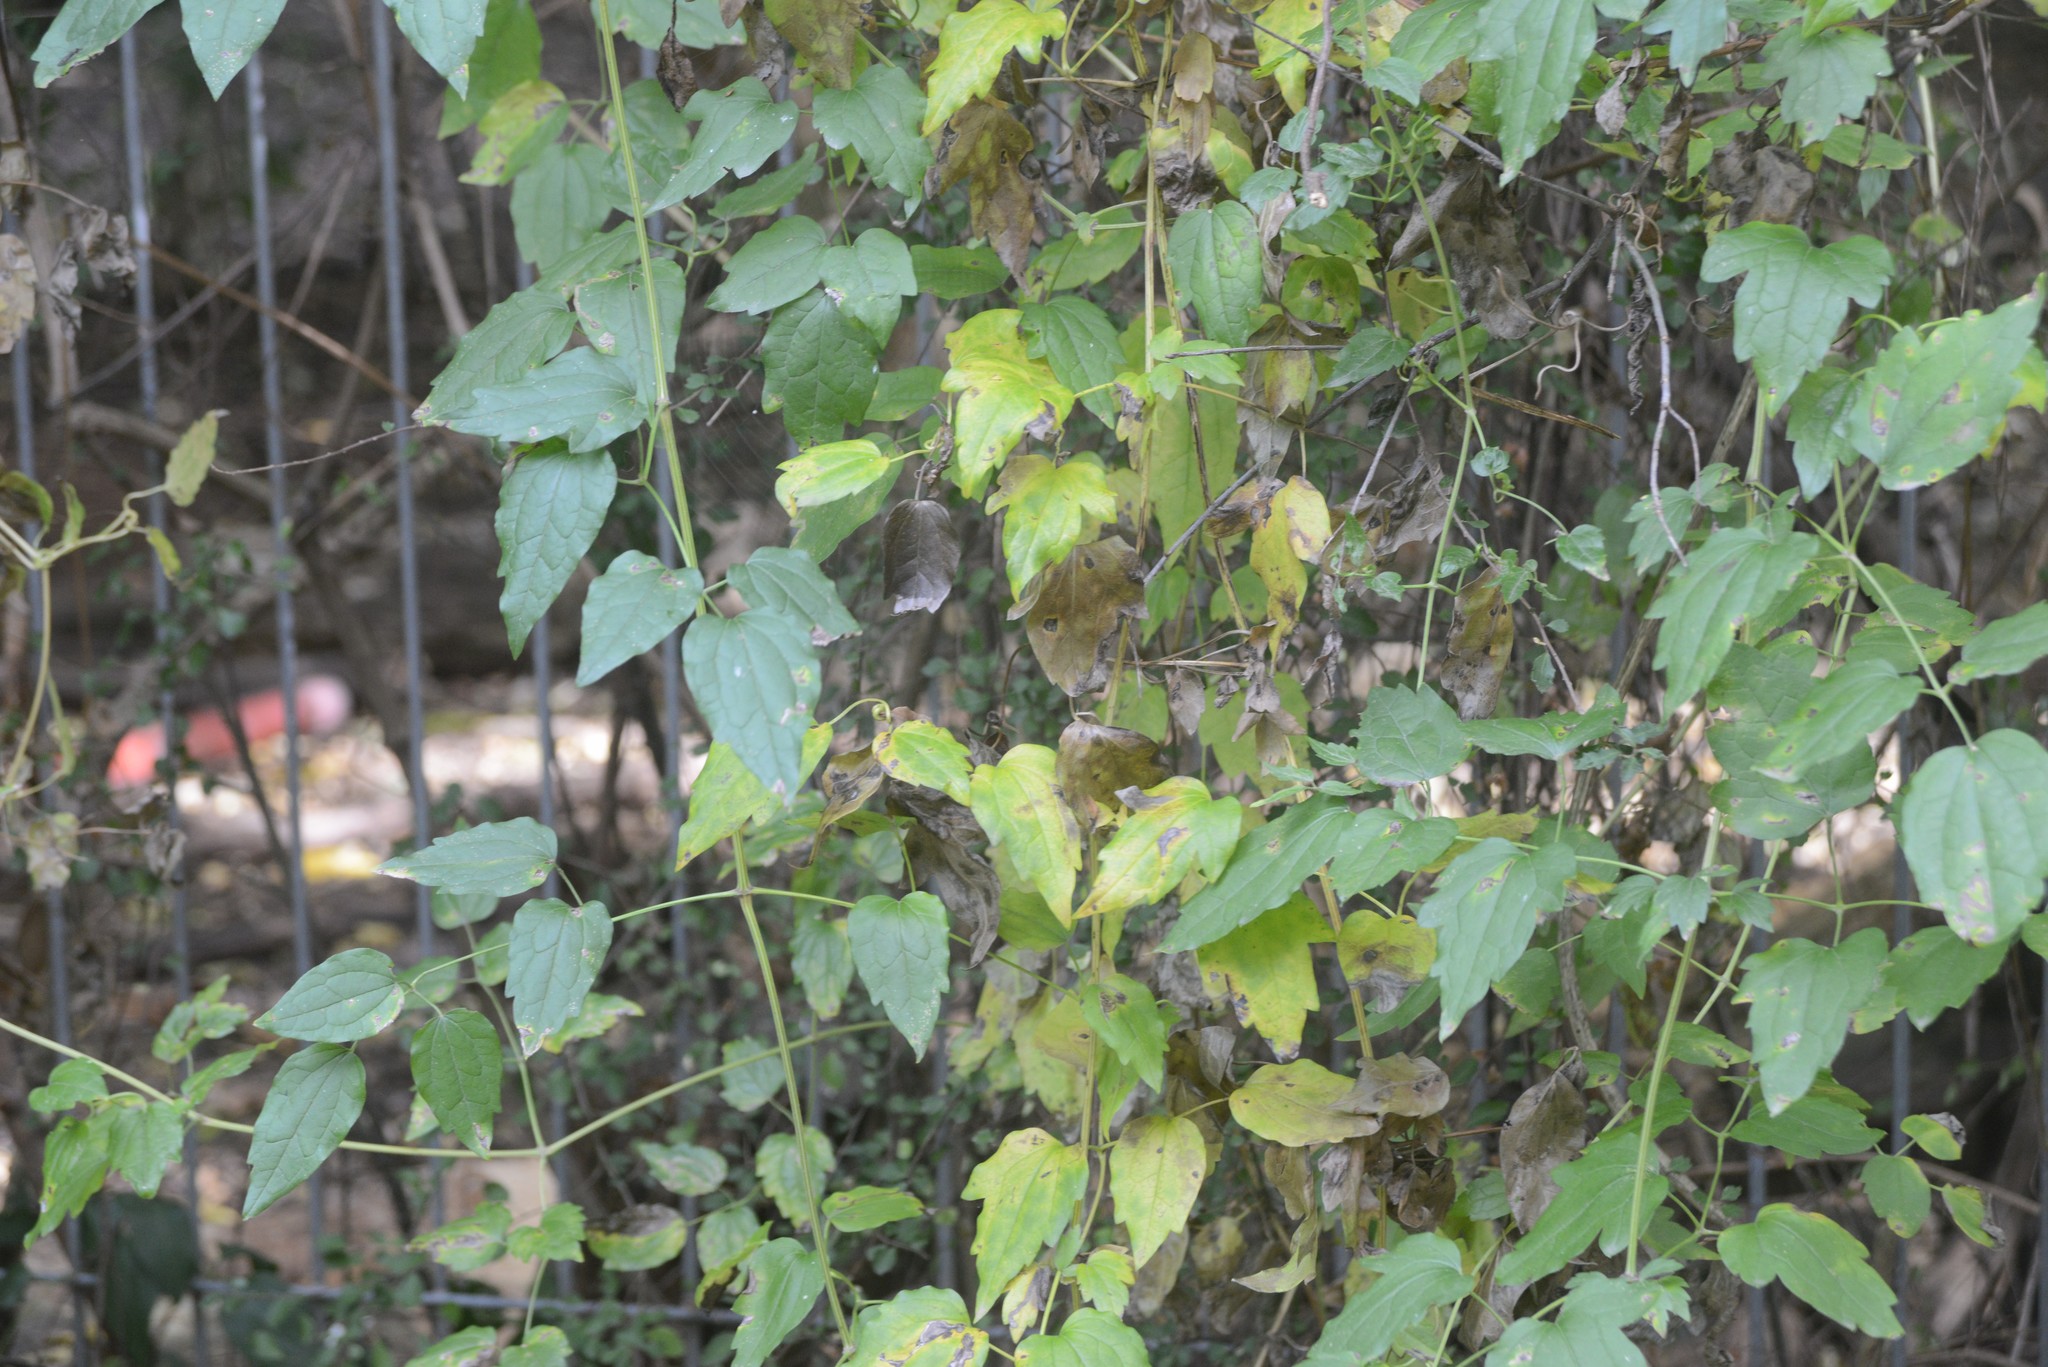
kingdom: Plantae
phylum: Tracheophyta
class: Magnoliopsida
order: Ranunculales
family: Ranunculaceae
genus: Clematis
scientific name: Clematis vitalba
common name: Evergreen clematis
